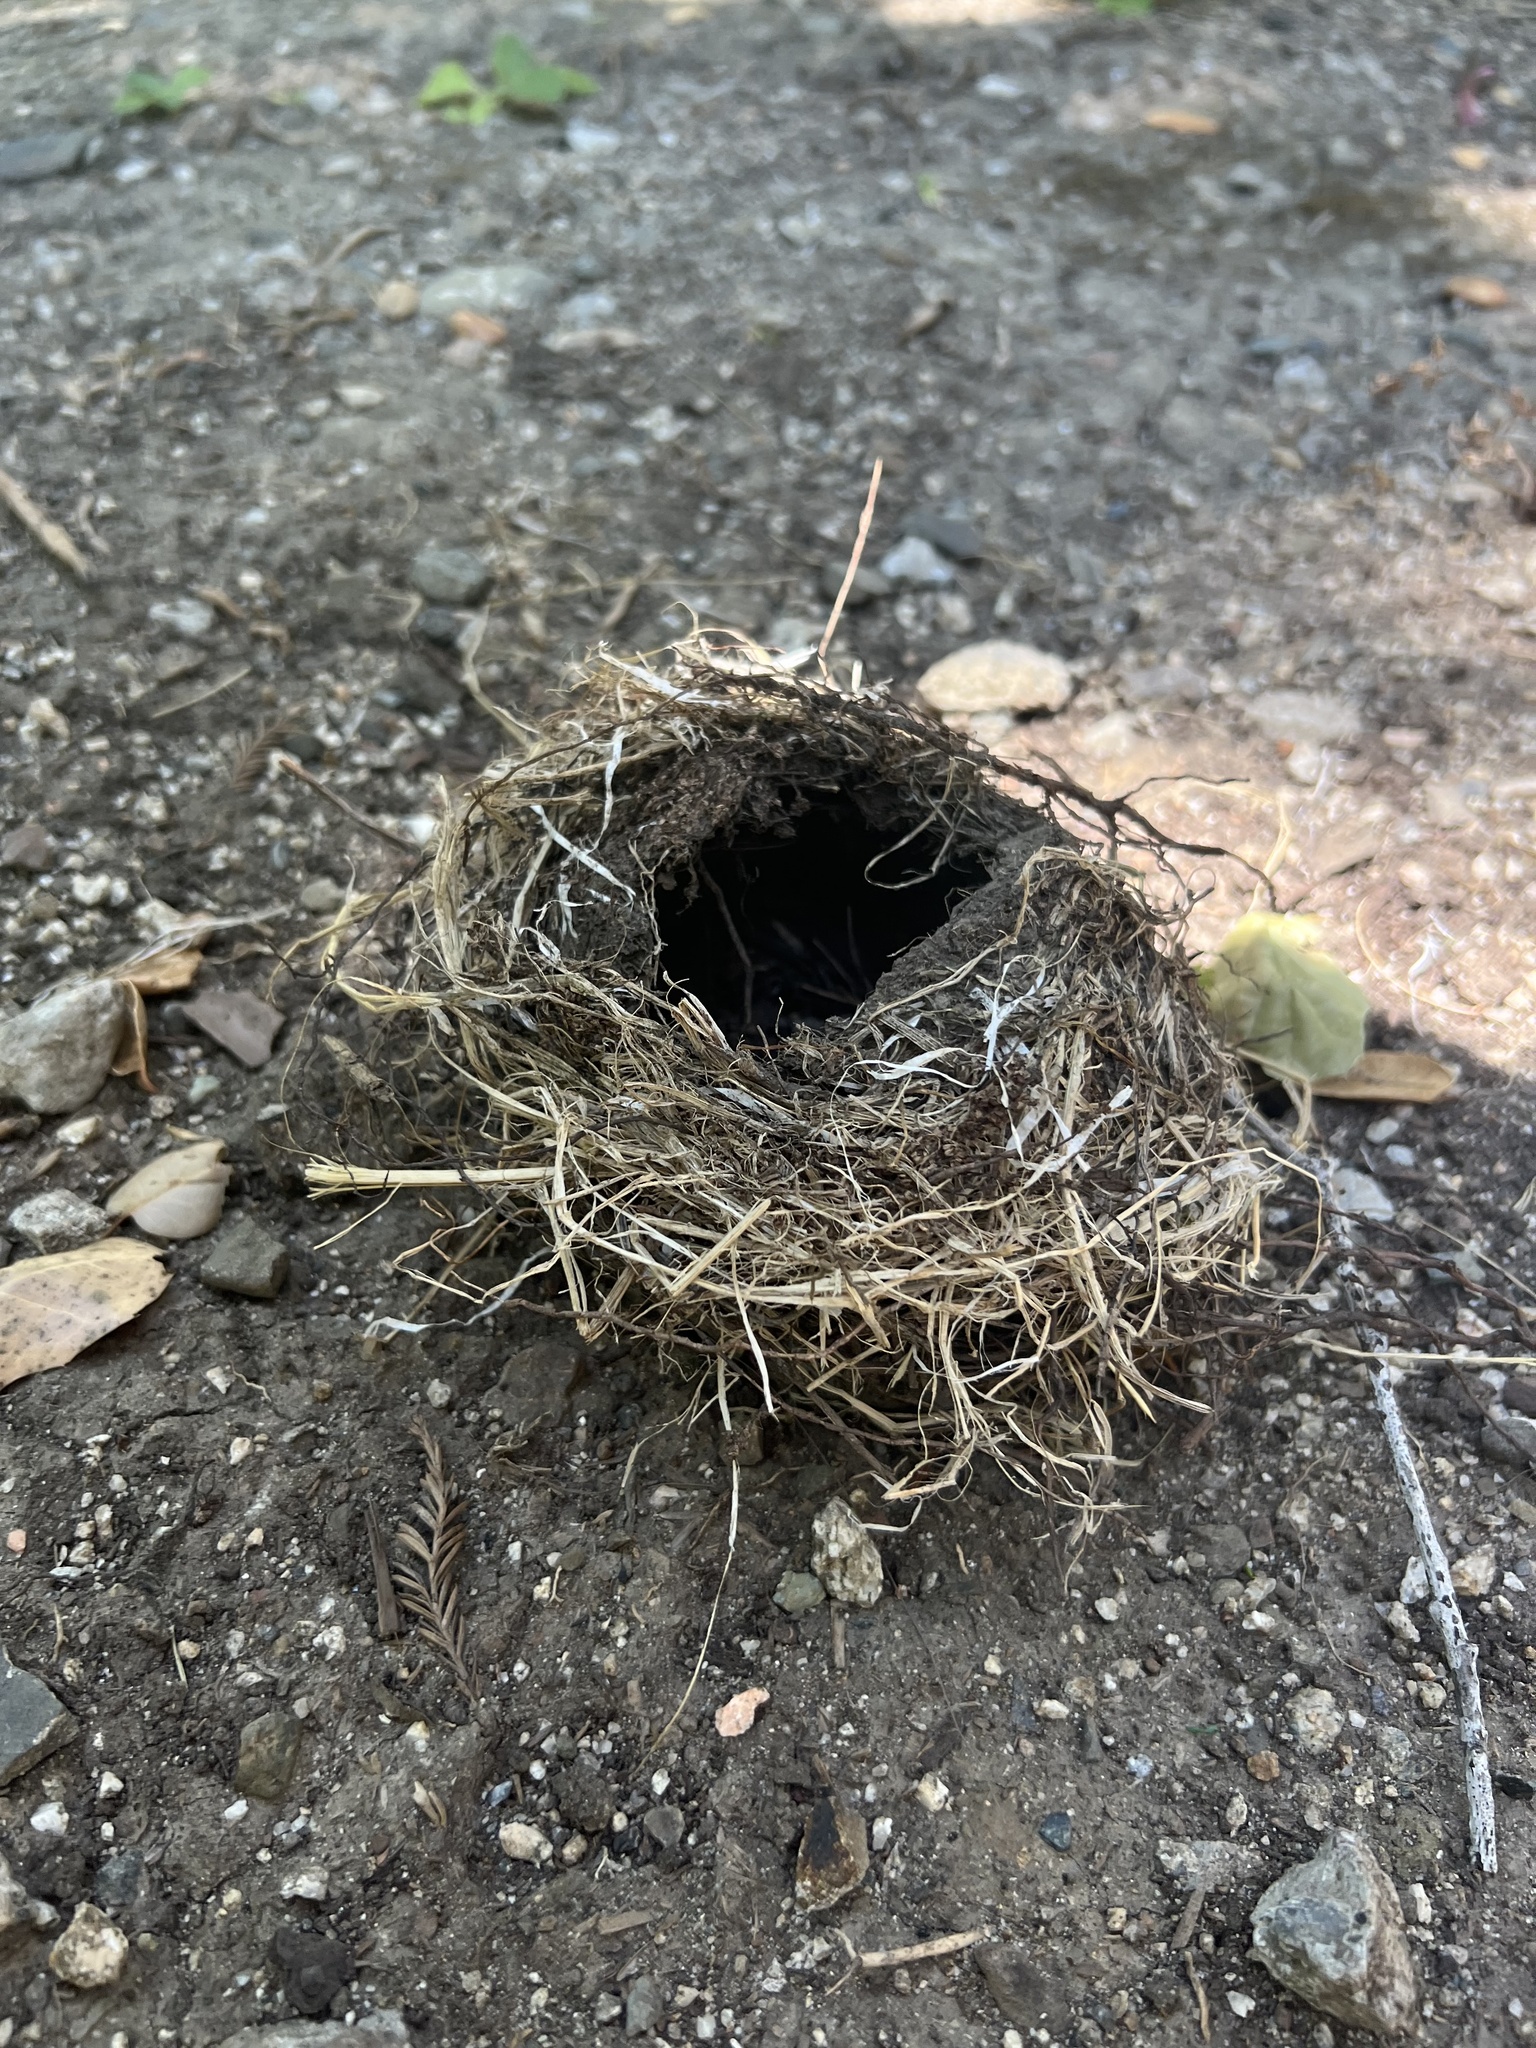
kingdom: Animalia
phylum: Chordata
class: Aves
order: Passeriformes
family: Turdidae
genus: Turdus
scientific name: Turdus migratorius
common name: American robin
